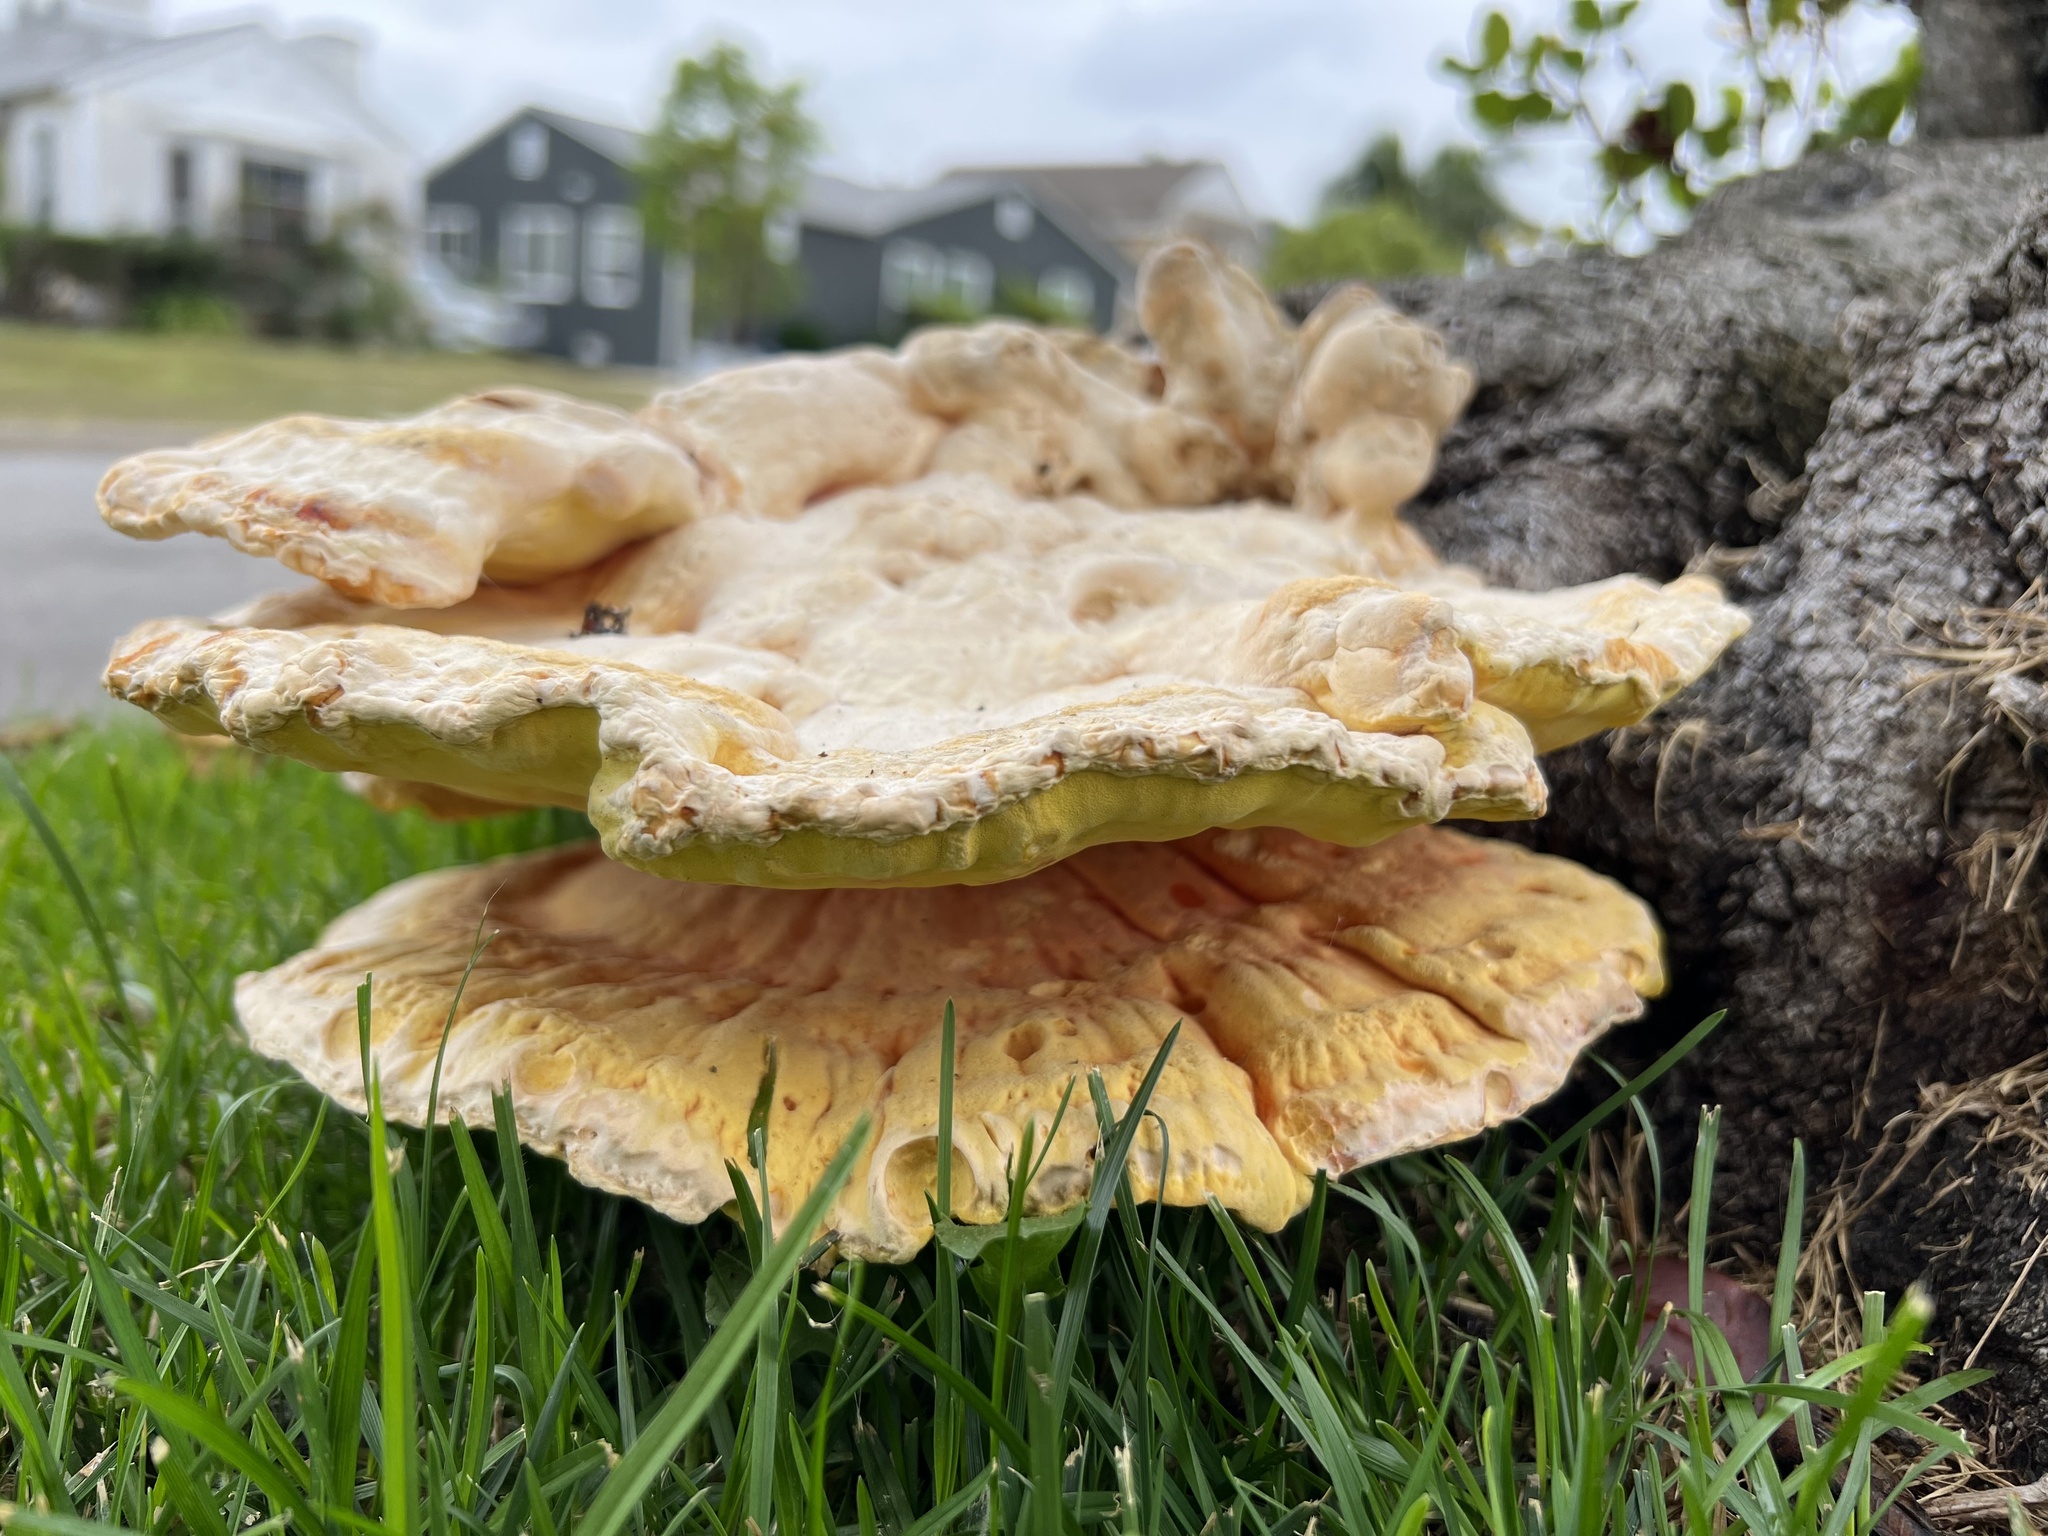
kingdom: Fungi
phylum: Basidiomycota
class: Agaricomycetes
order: Polyporales
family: Laetiporaceae
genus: Laetiporus
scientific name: Laetiporus gilbertsonii
